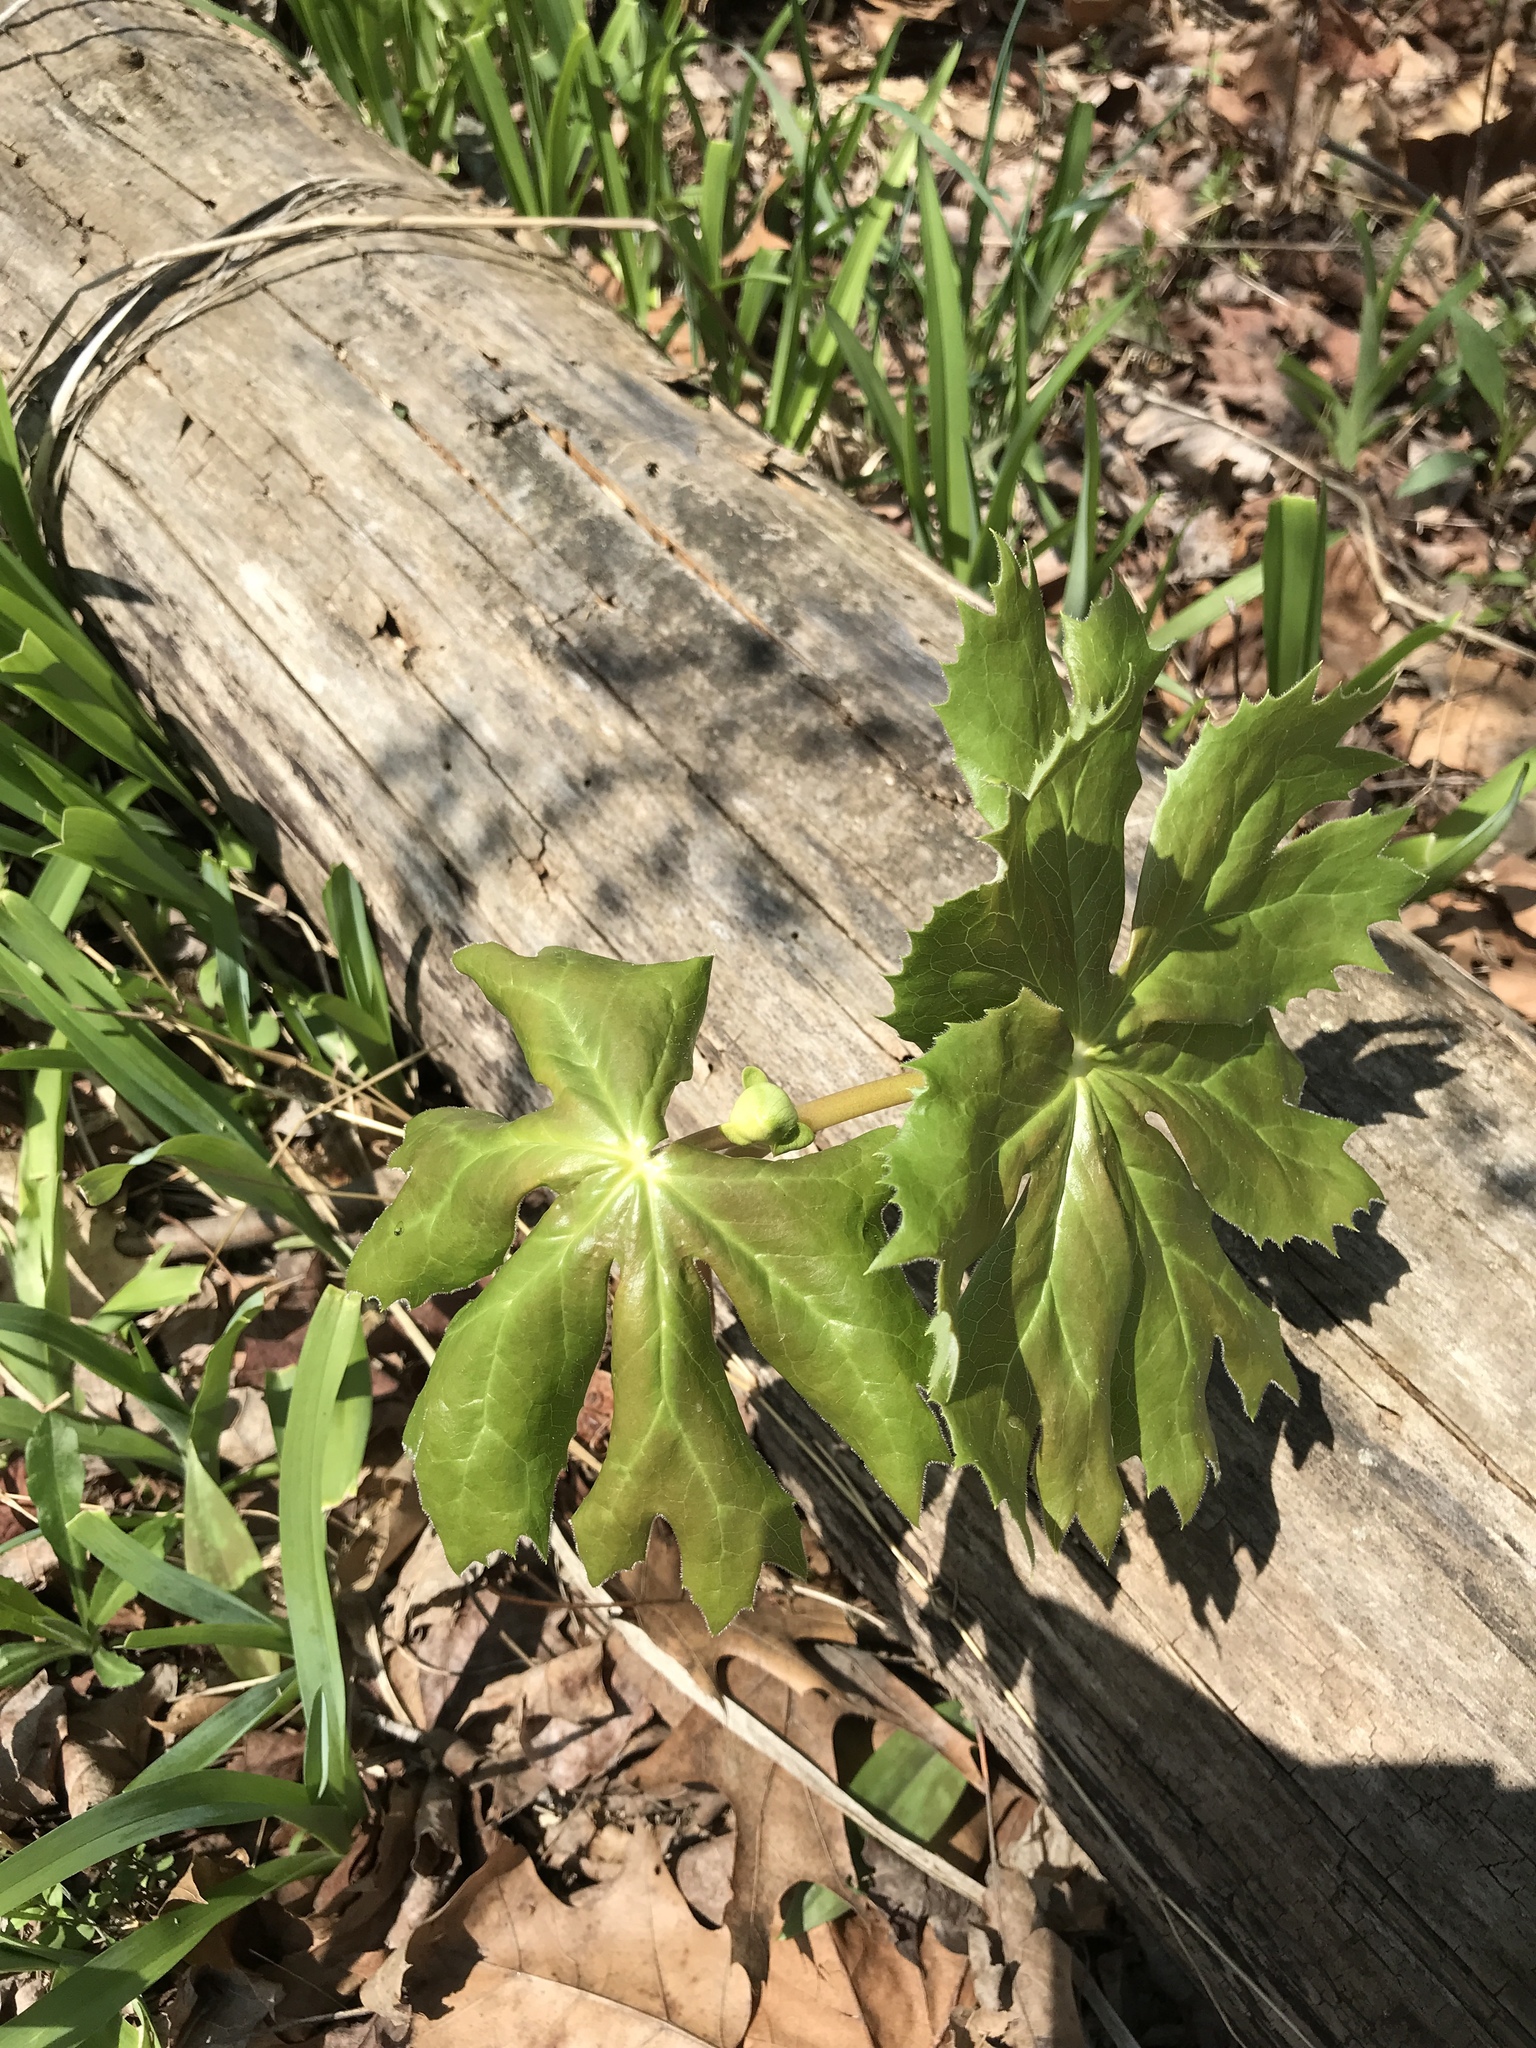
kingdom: Plantae
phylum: Tracheophyta
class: Magnoliopsida
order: Ranunculales
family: Berberidaceae
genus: Podophyllum
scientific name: Podophyllum peltatum
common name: Wild mandrake
